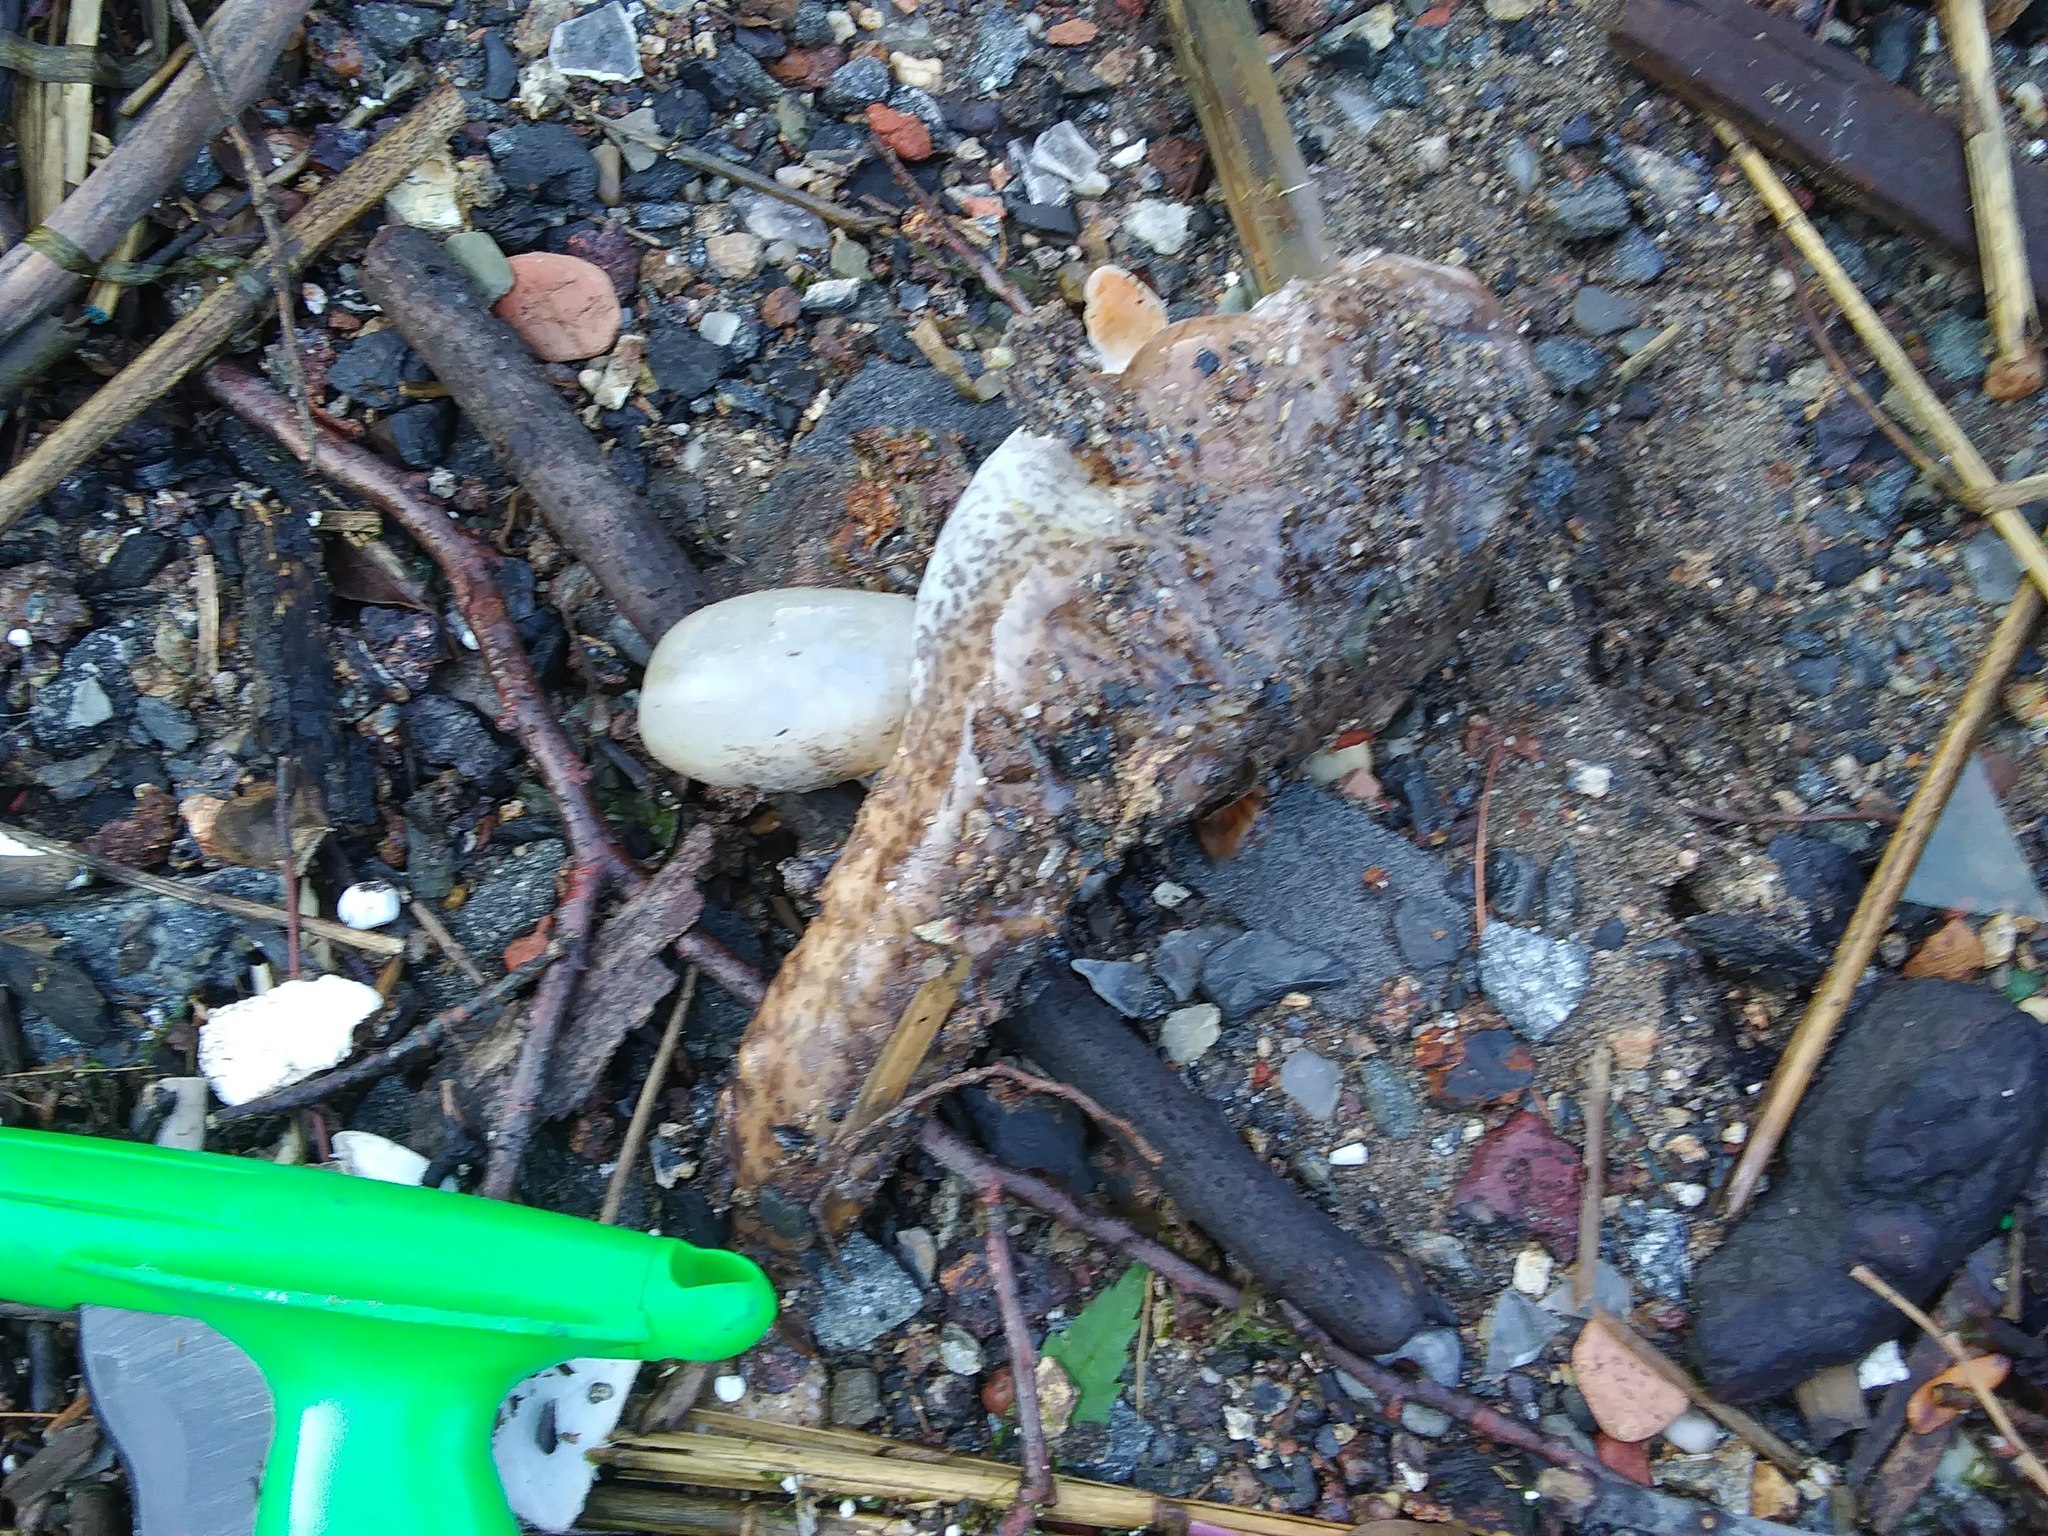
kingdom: Animalia
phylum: Chordata
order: Batrachoidiformes
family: Batrachoididae
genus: Opsanus
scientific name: Opsanus tau
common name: Oyster toadfish
